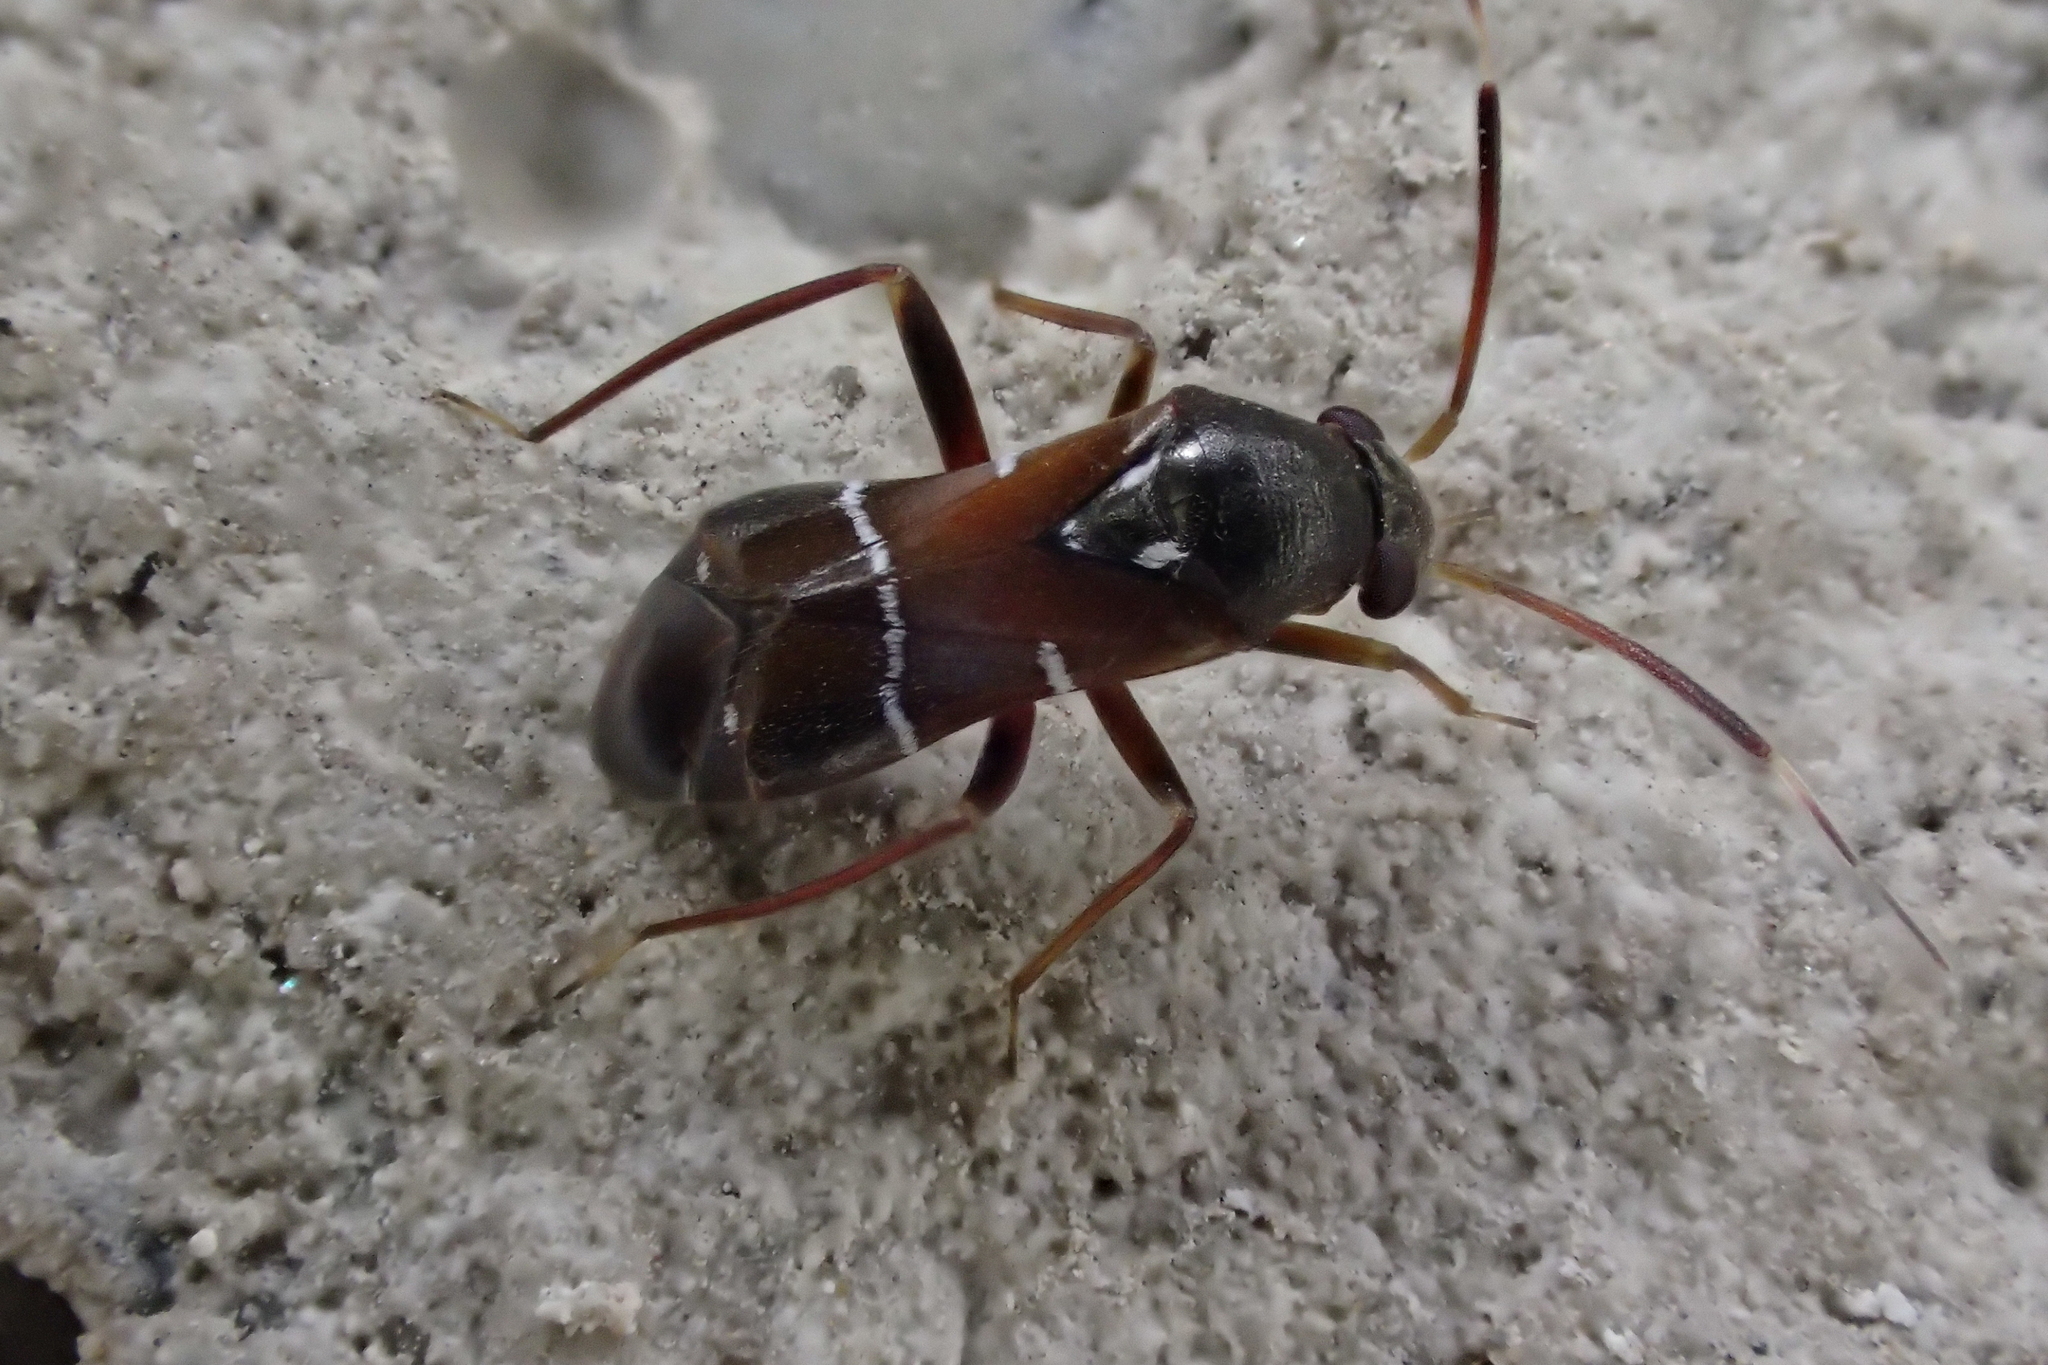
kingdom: Animalia
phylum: Arthropoda
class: Insecta
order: Hemiptera
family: Miridae
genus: Pilophorus
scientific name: Pilophorus perplexus
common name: Plant bug
